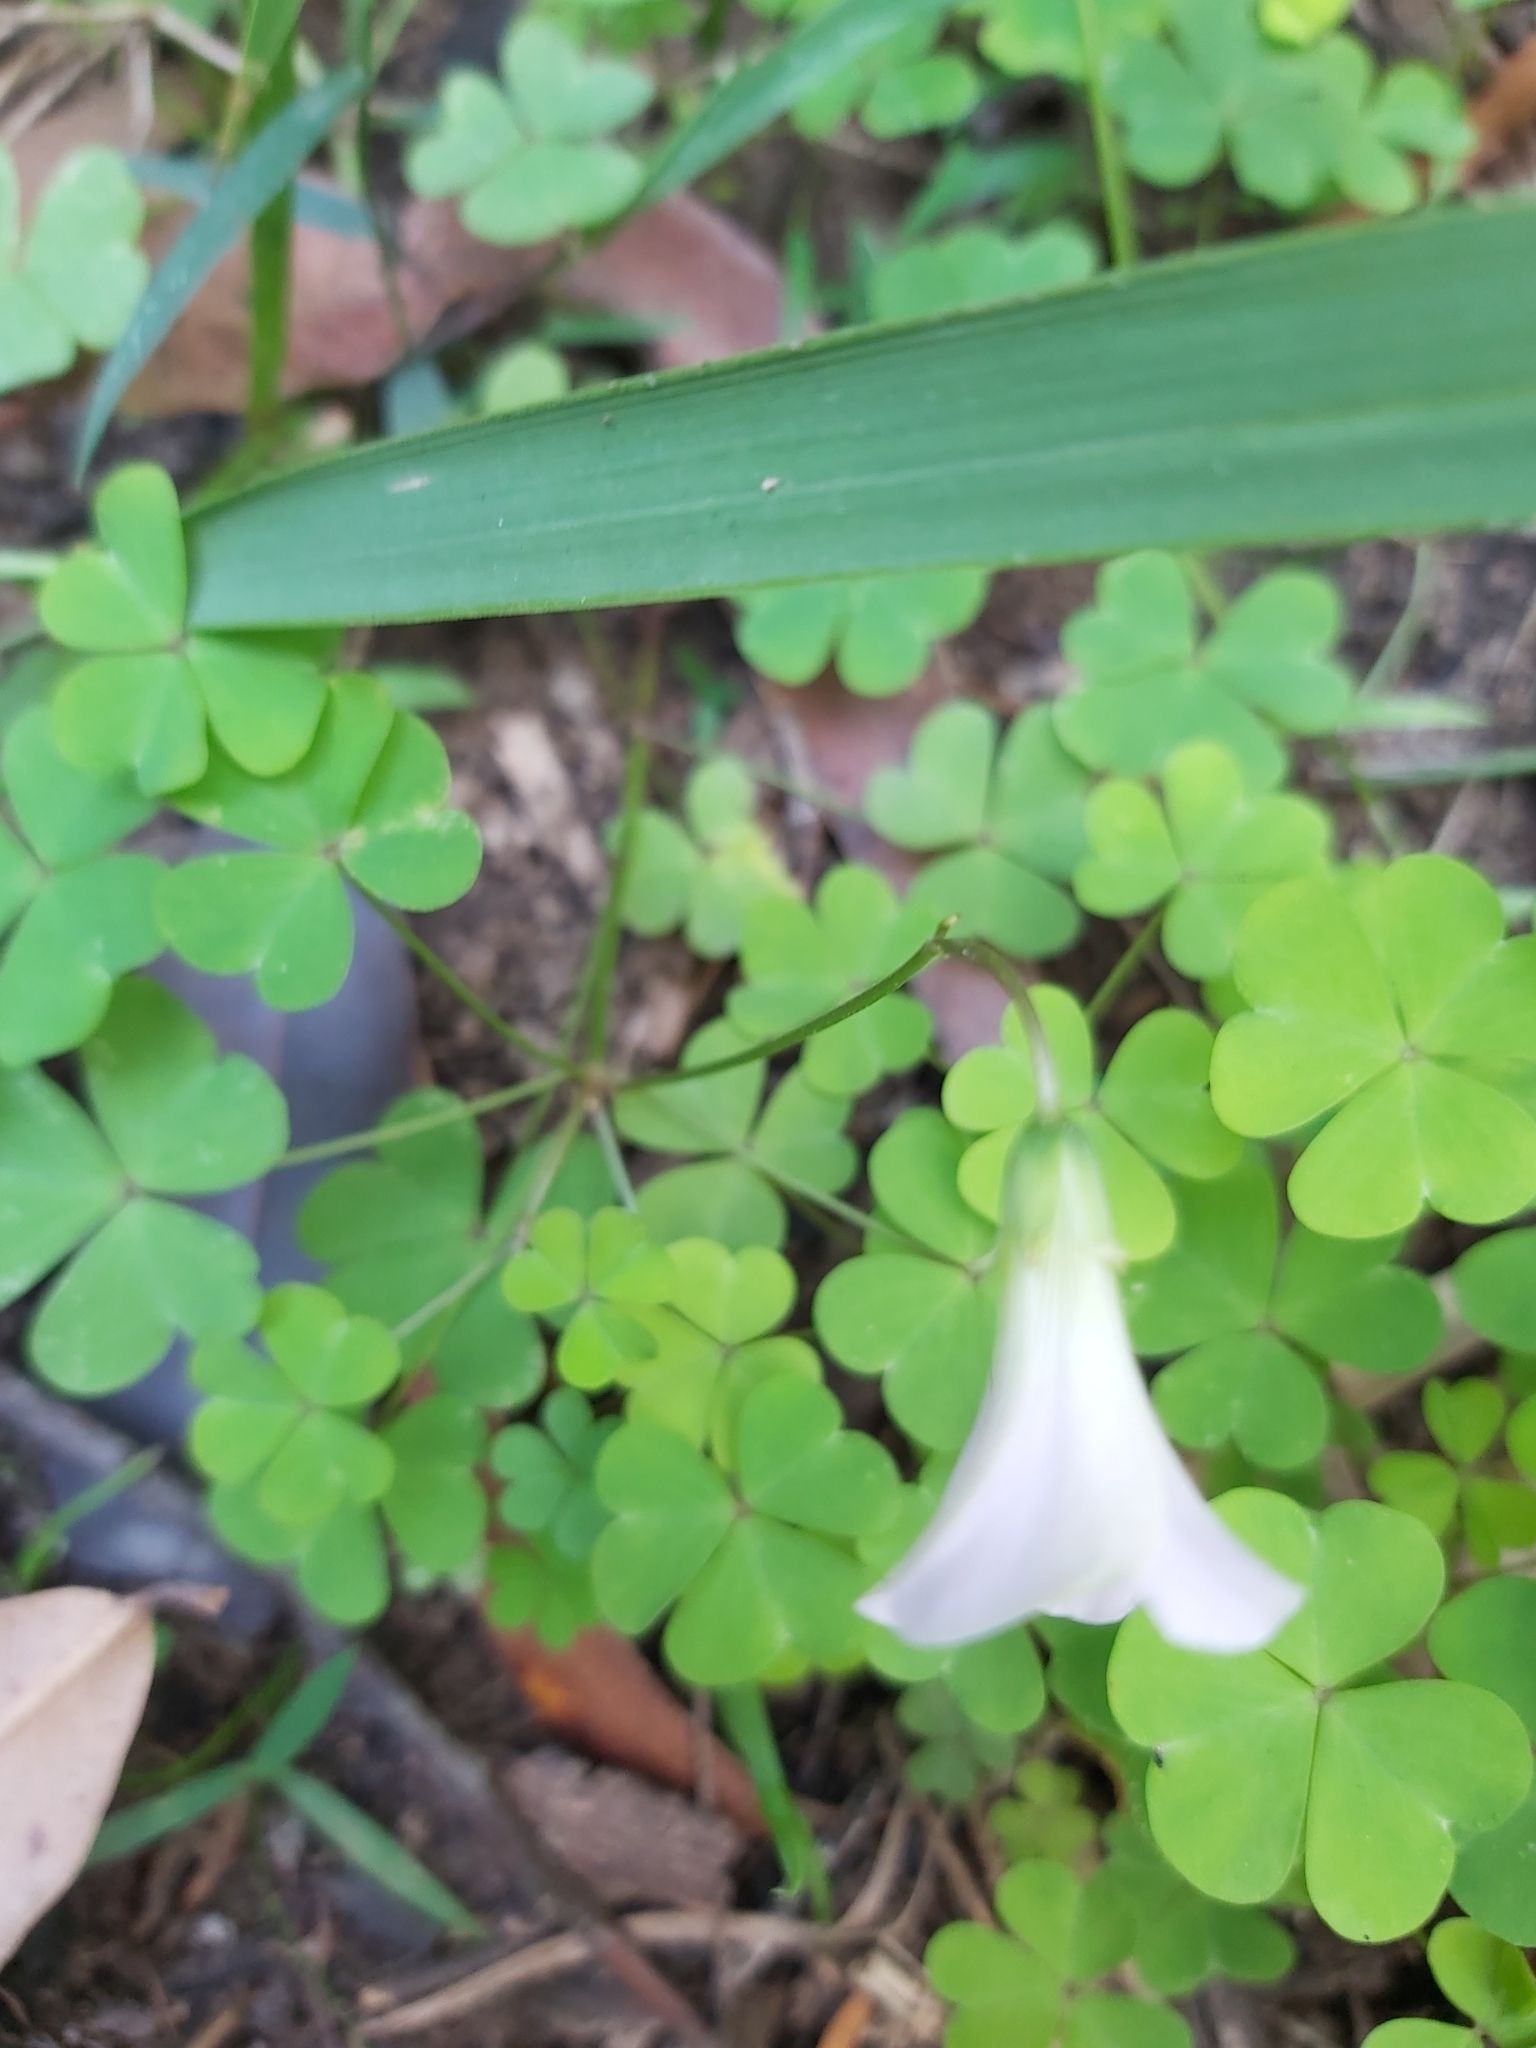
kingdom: Plantae
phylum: Tracheophyta
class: Magnoliopsida
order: Oxalidales
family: Oxalidaceae
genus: Oxalis
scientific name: Oxalis incarnata
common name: Pale pink-sorrel
